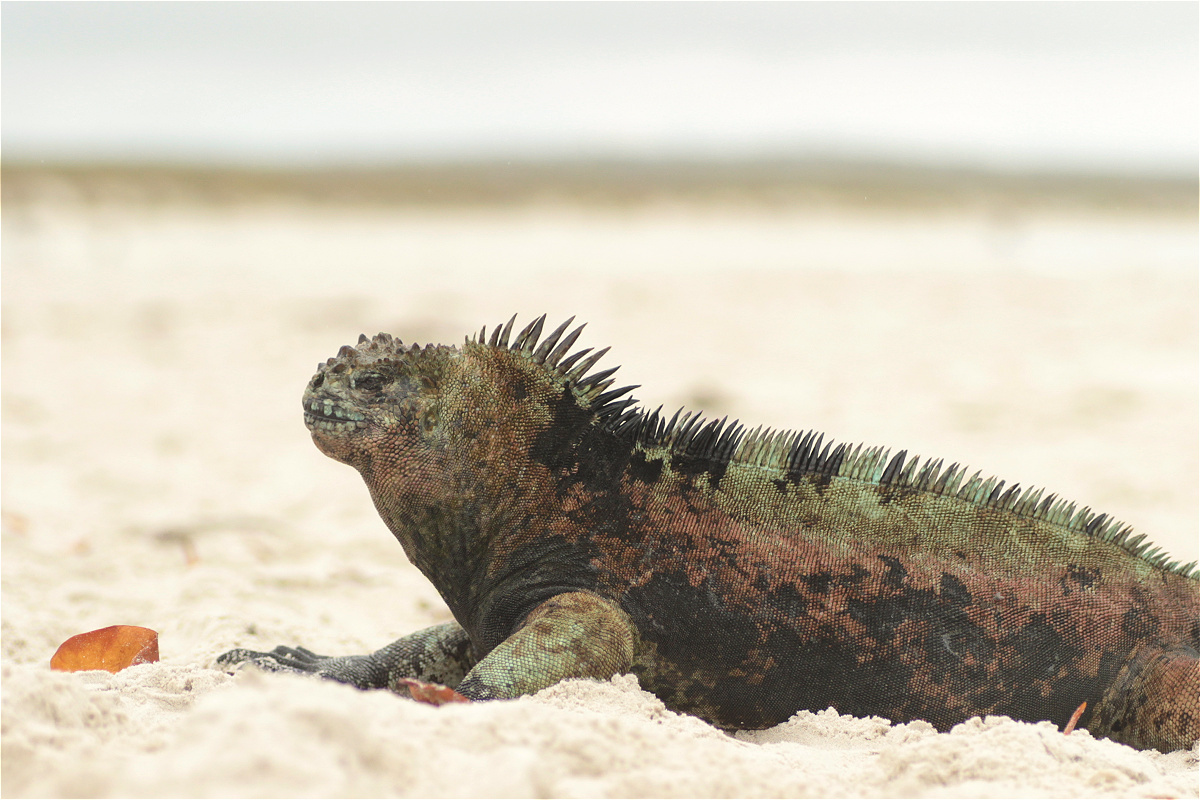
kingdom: Animalia
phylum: Chordata
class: Squamata
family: Iguanidae
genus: Amblyrhynchus
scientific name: Amblyrhynchus cristatus
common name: Marine iguana
